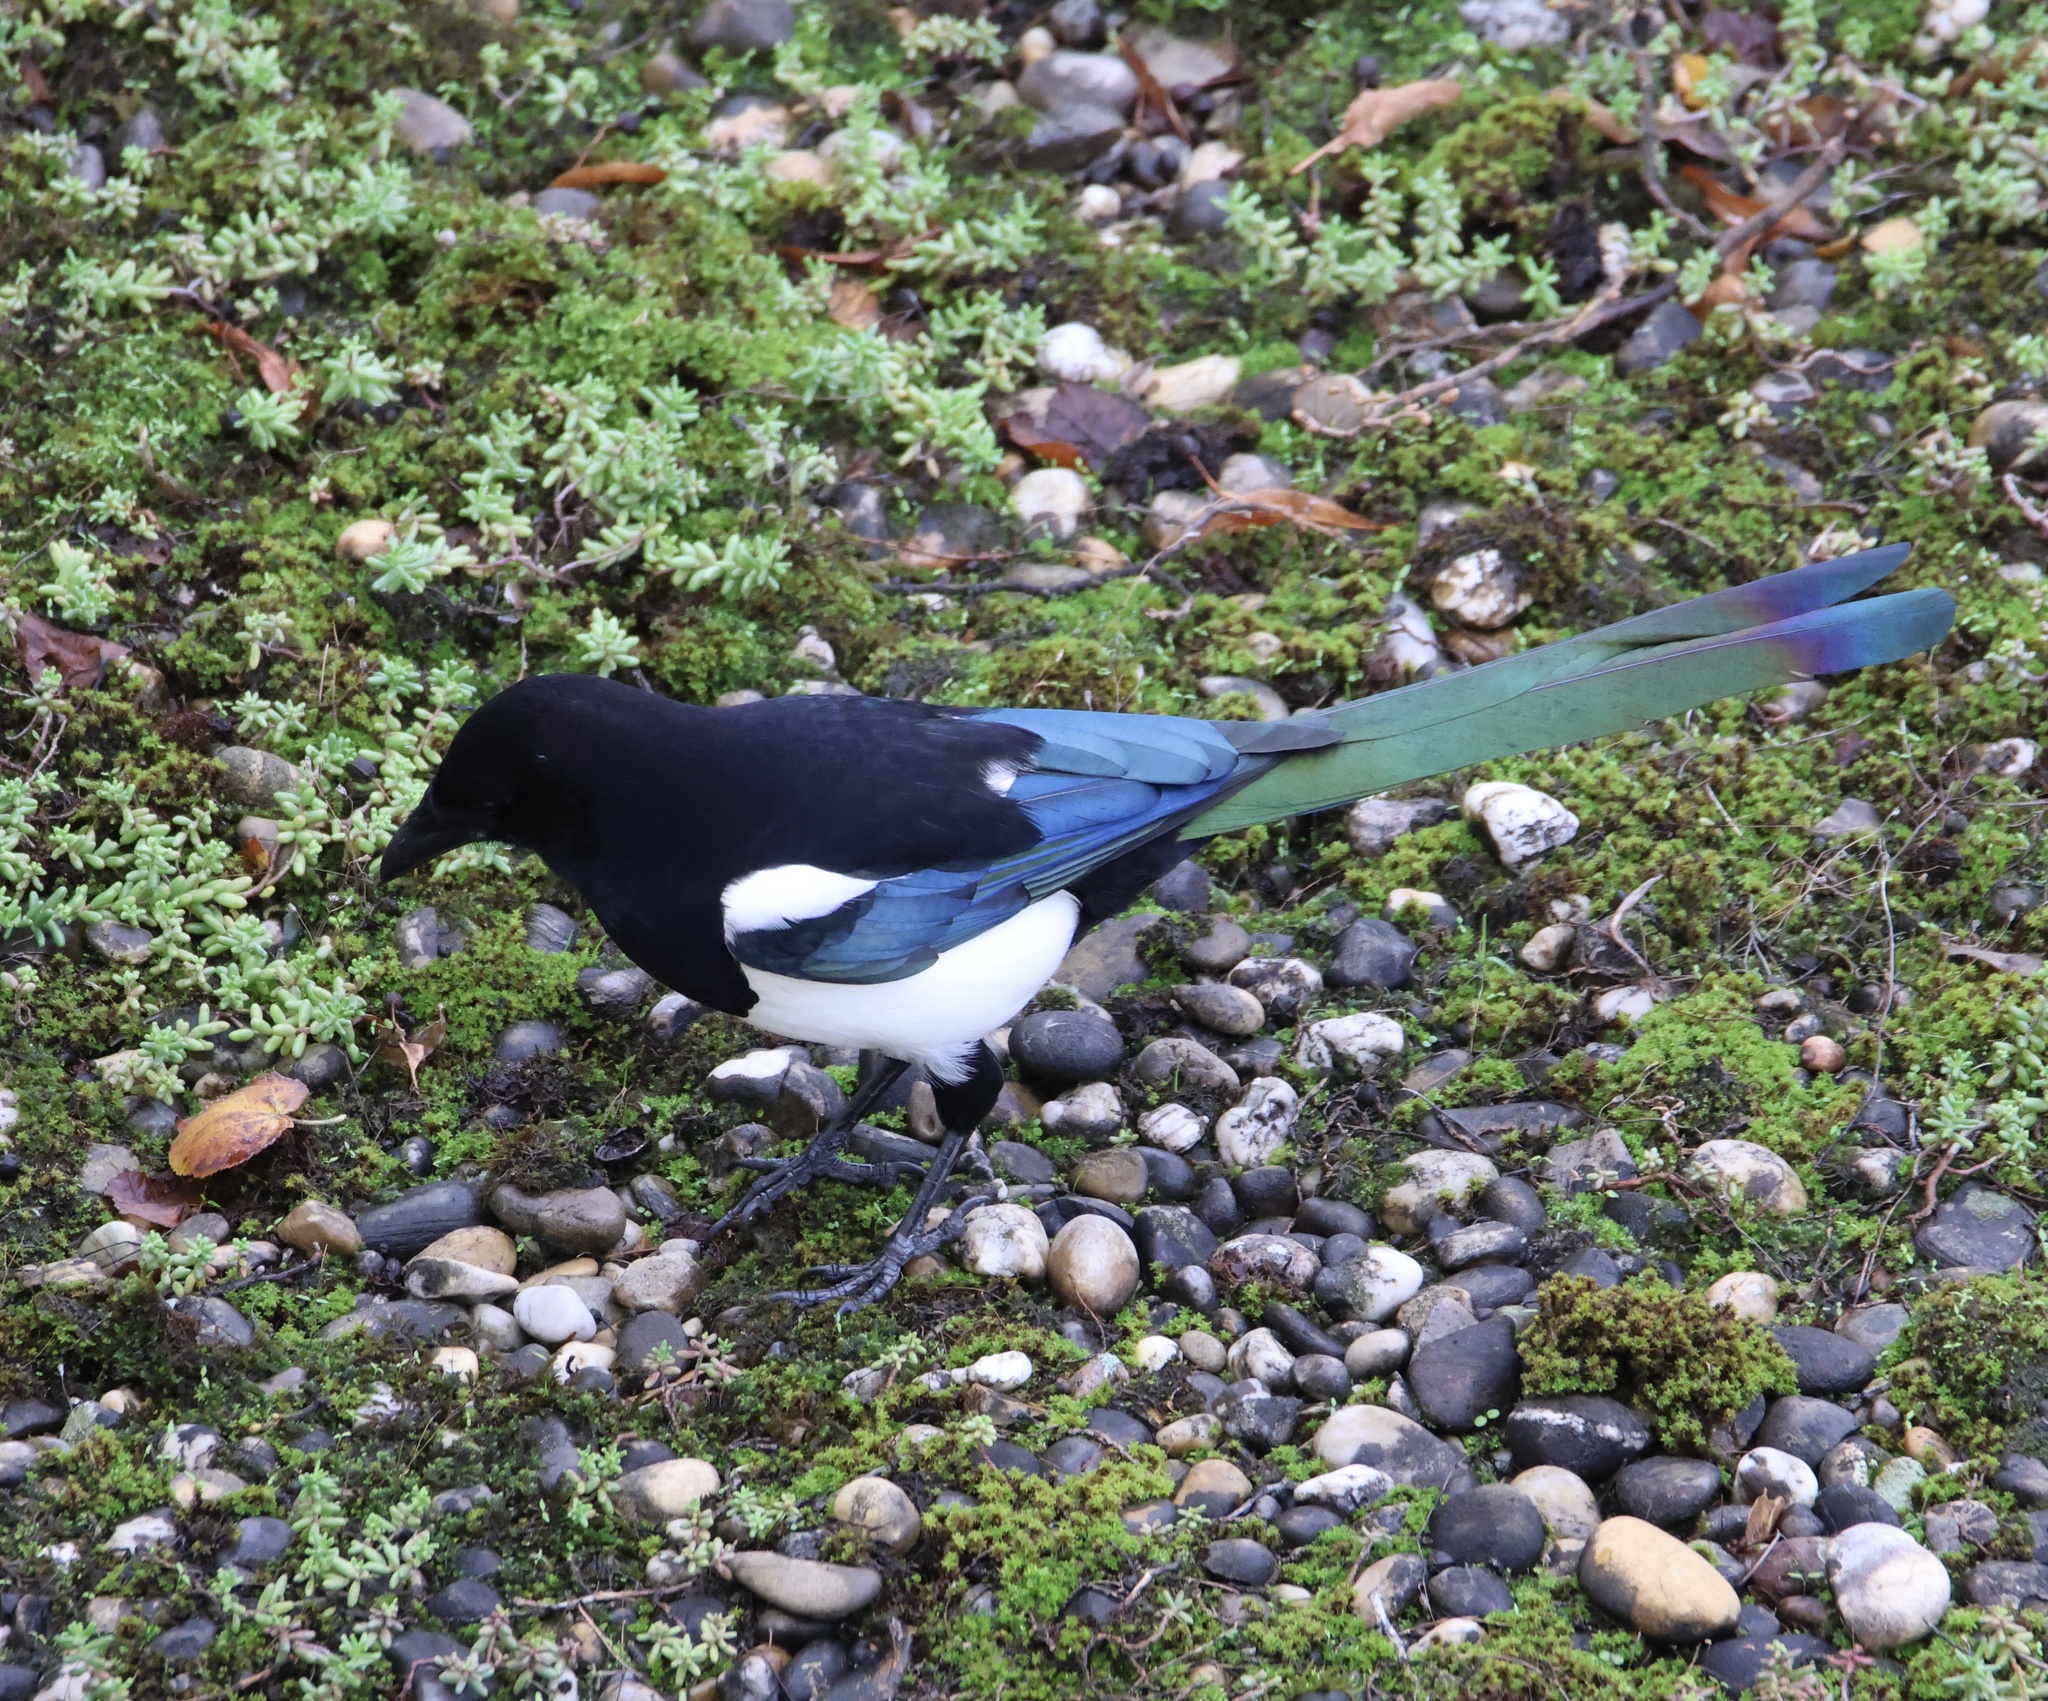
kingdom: Animalia
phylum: Chordata
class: Aves
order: Passeriformes
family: Corvidae
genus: Pica
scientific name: Pica pica
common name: Eurasian magpie
